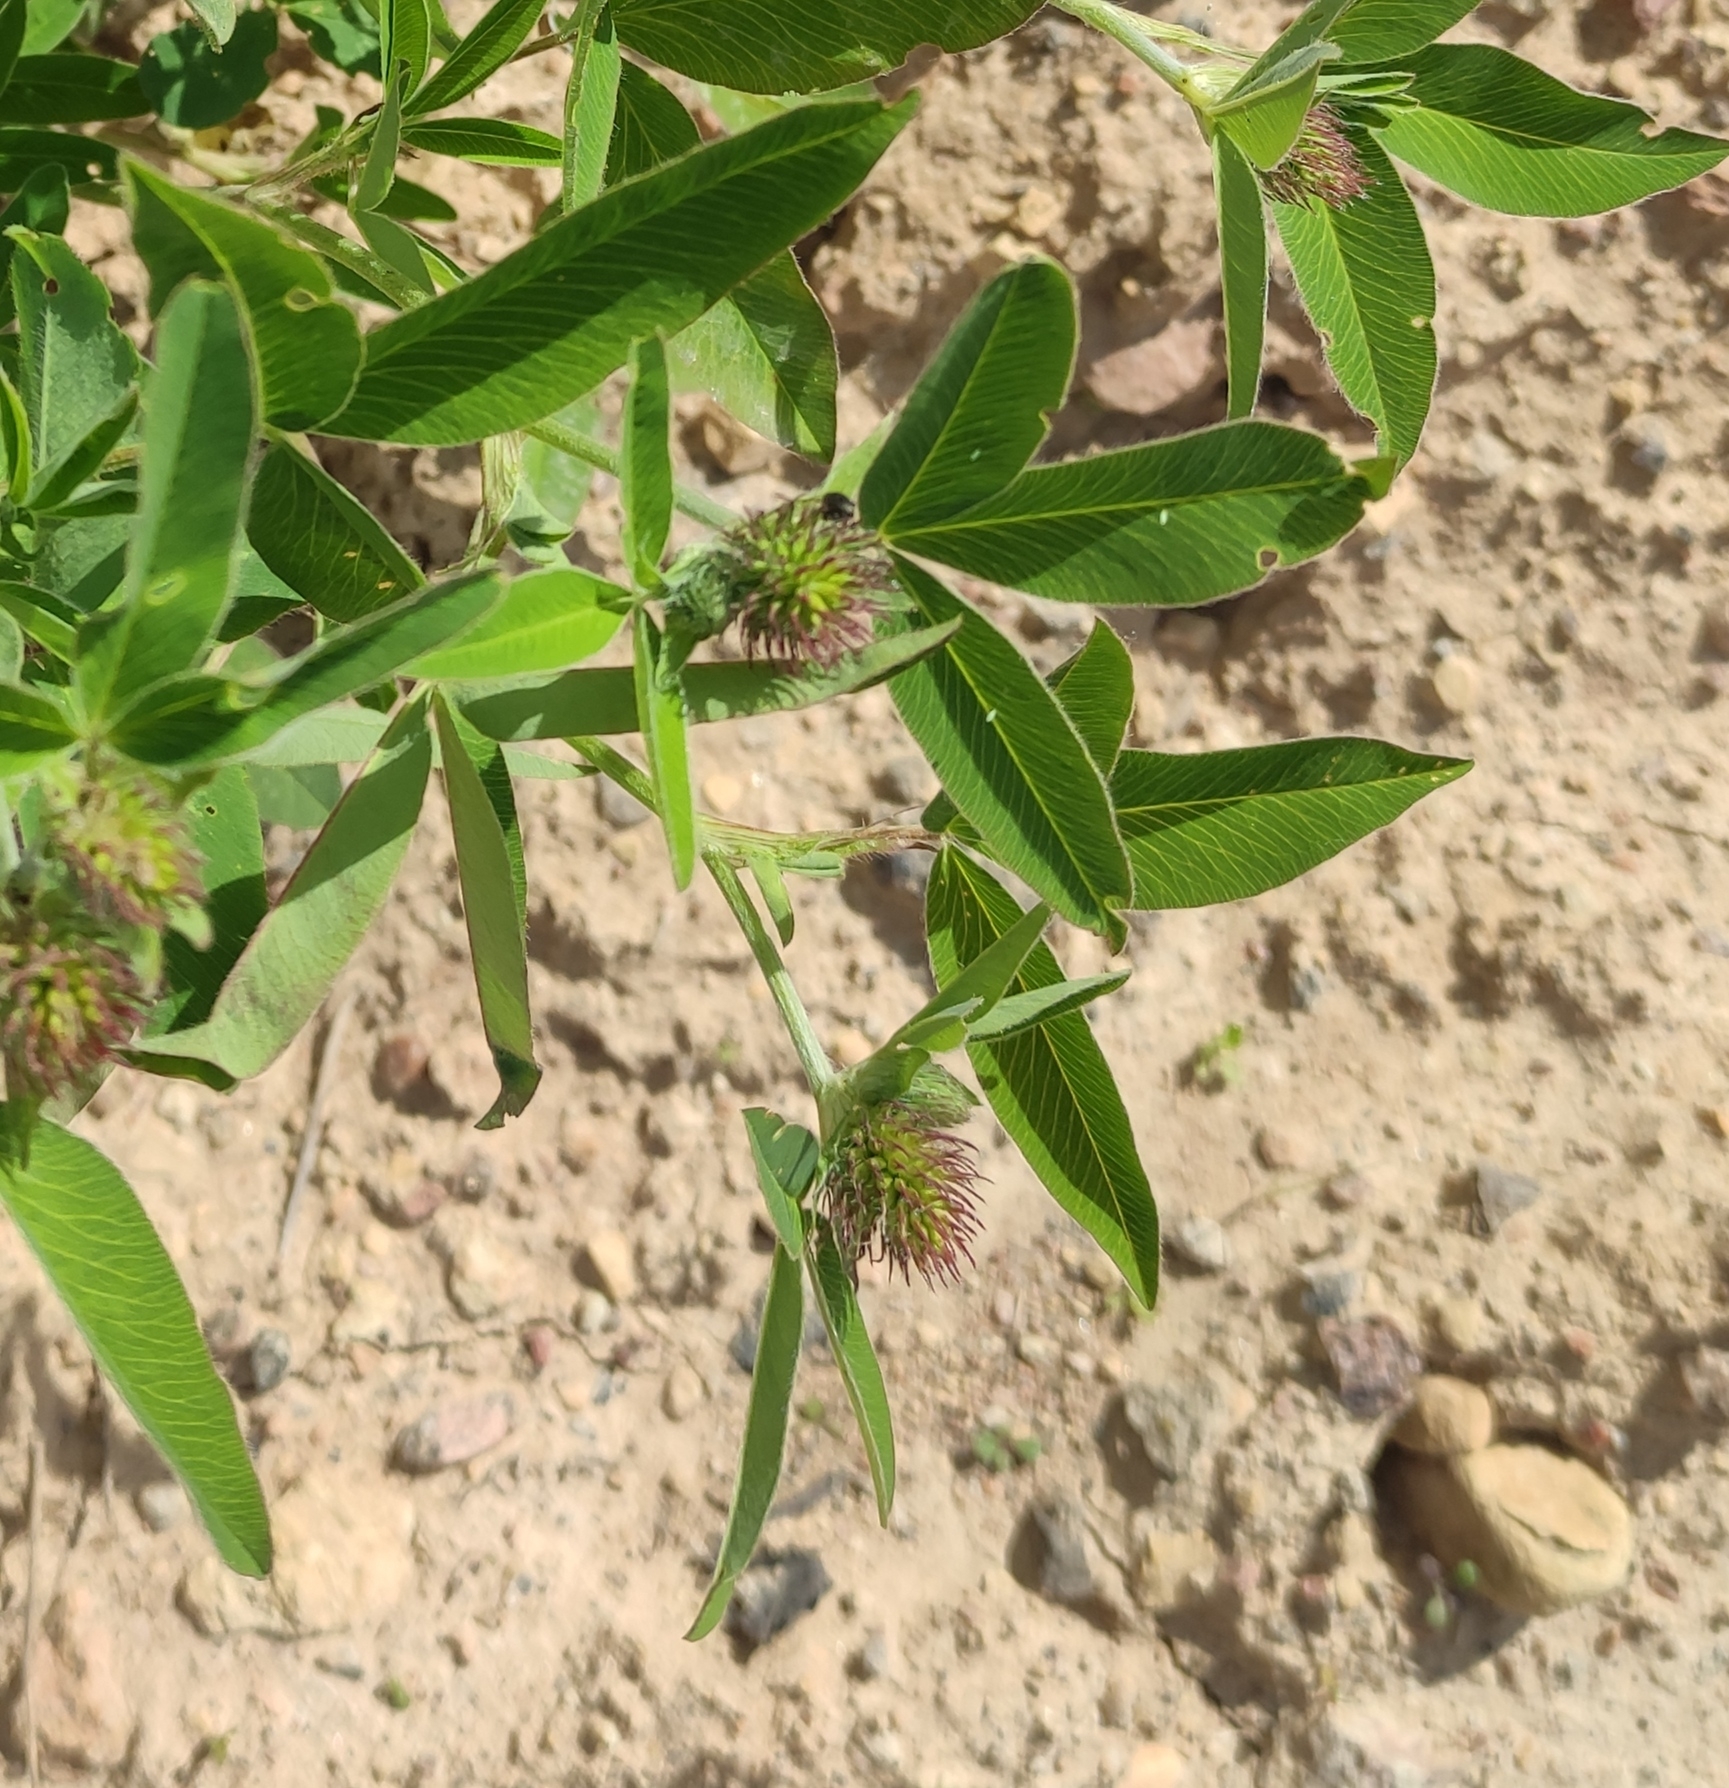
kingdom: Plantae
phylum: Tracheophyta
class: Magnoliopsida
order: Fabales
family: Fabaceae
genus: Trifolium
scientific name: Trifolium medium
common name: Zigzag clover
